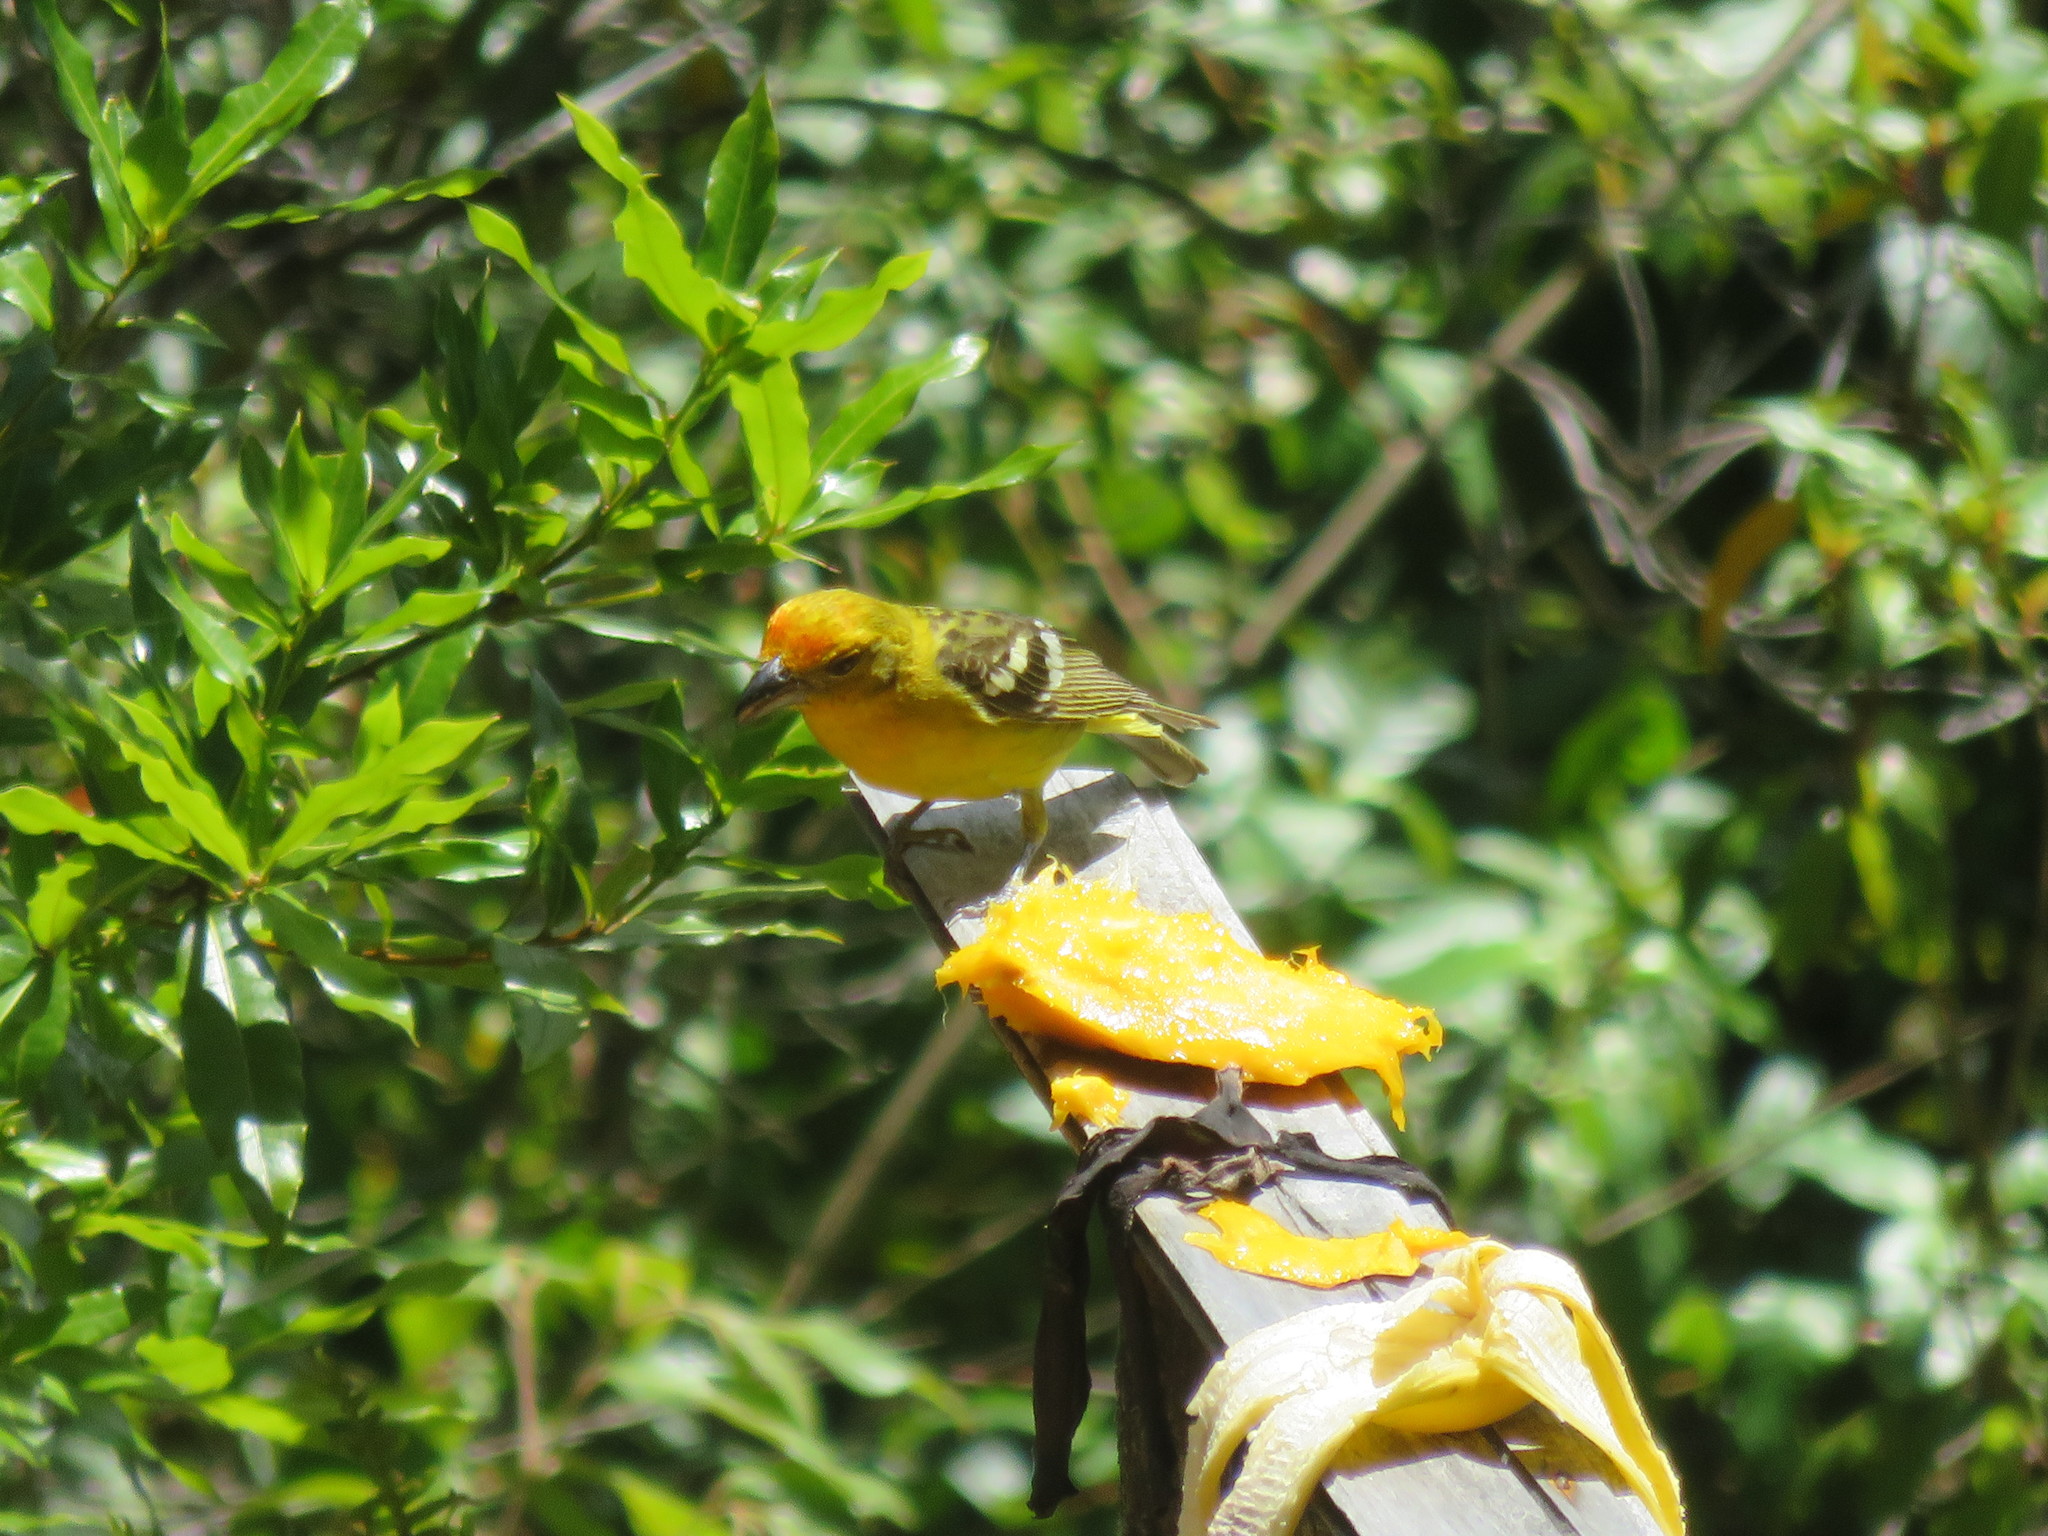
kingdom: Animalia
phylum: Chordata
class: Aves
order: Passeriformes
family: Cardinalidae
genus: Piranga
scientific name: Piranga bidentata
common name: Flame-colored tanager
